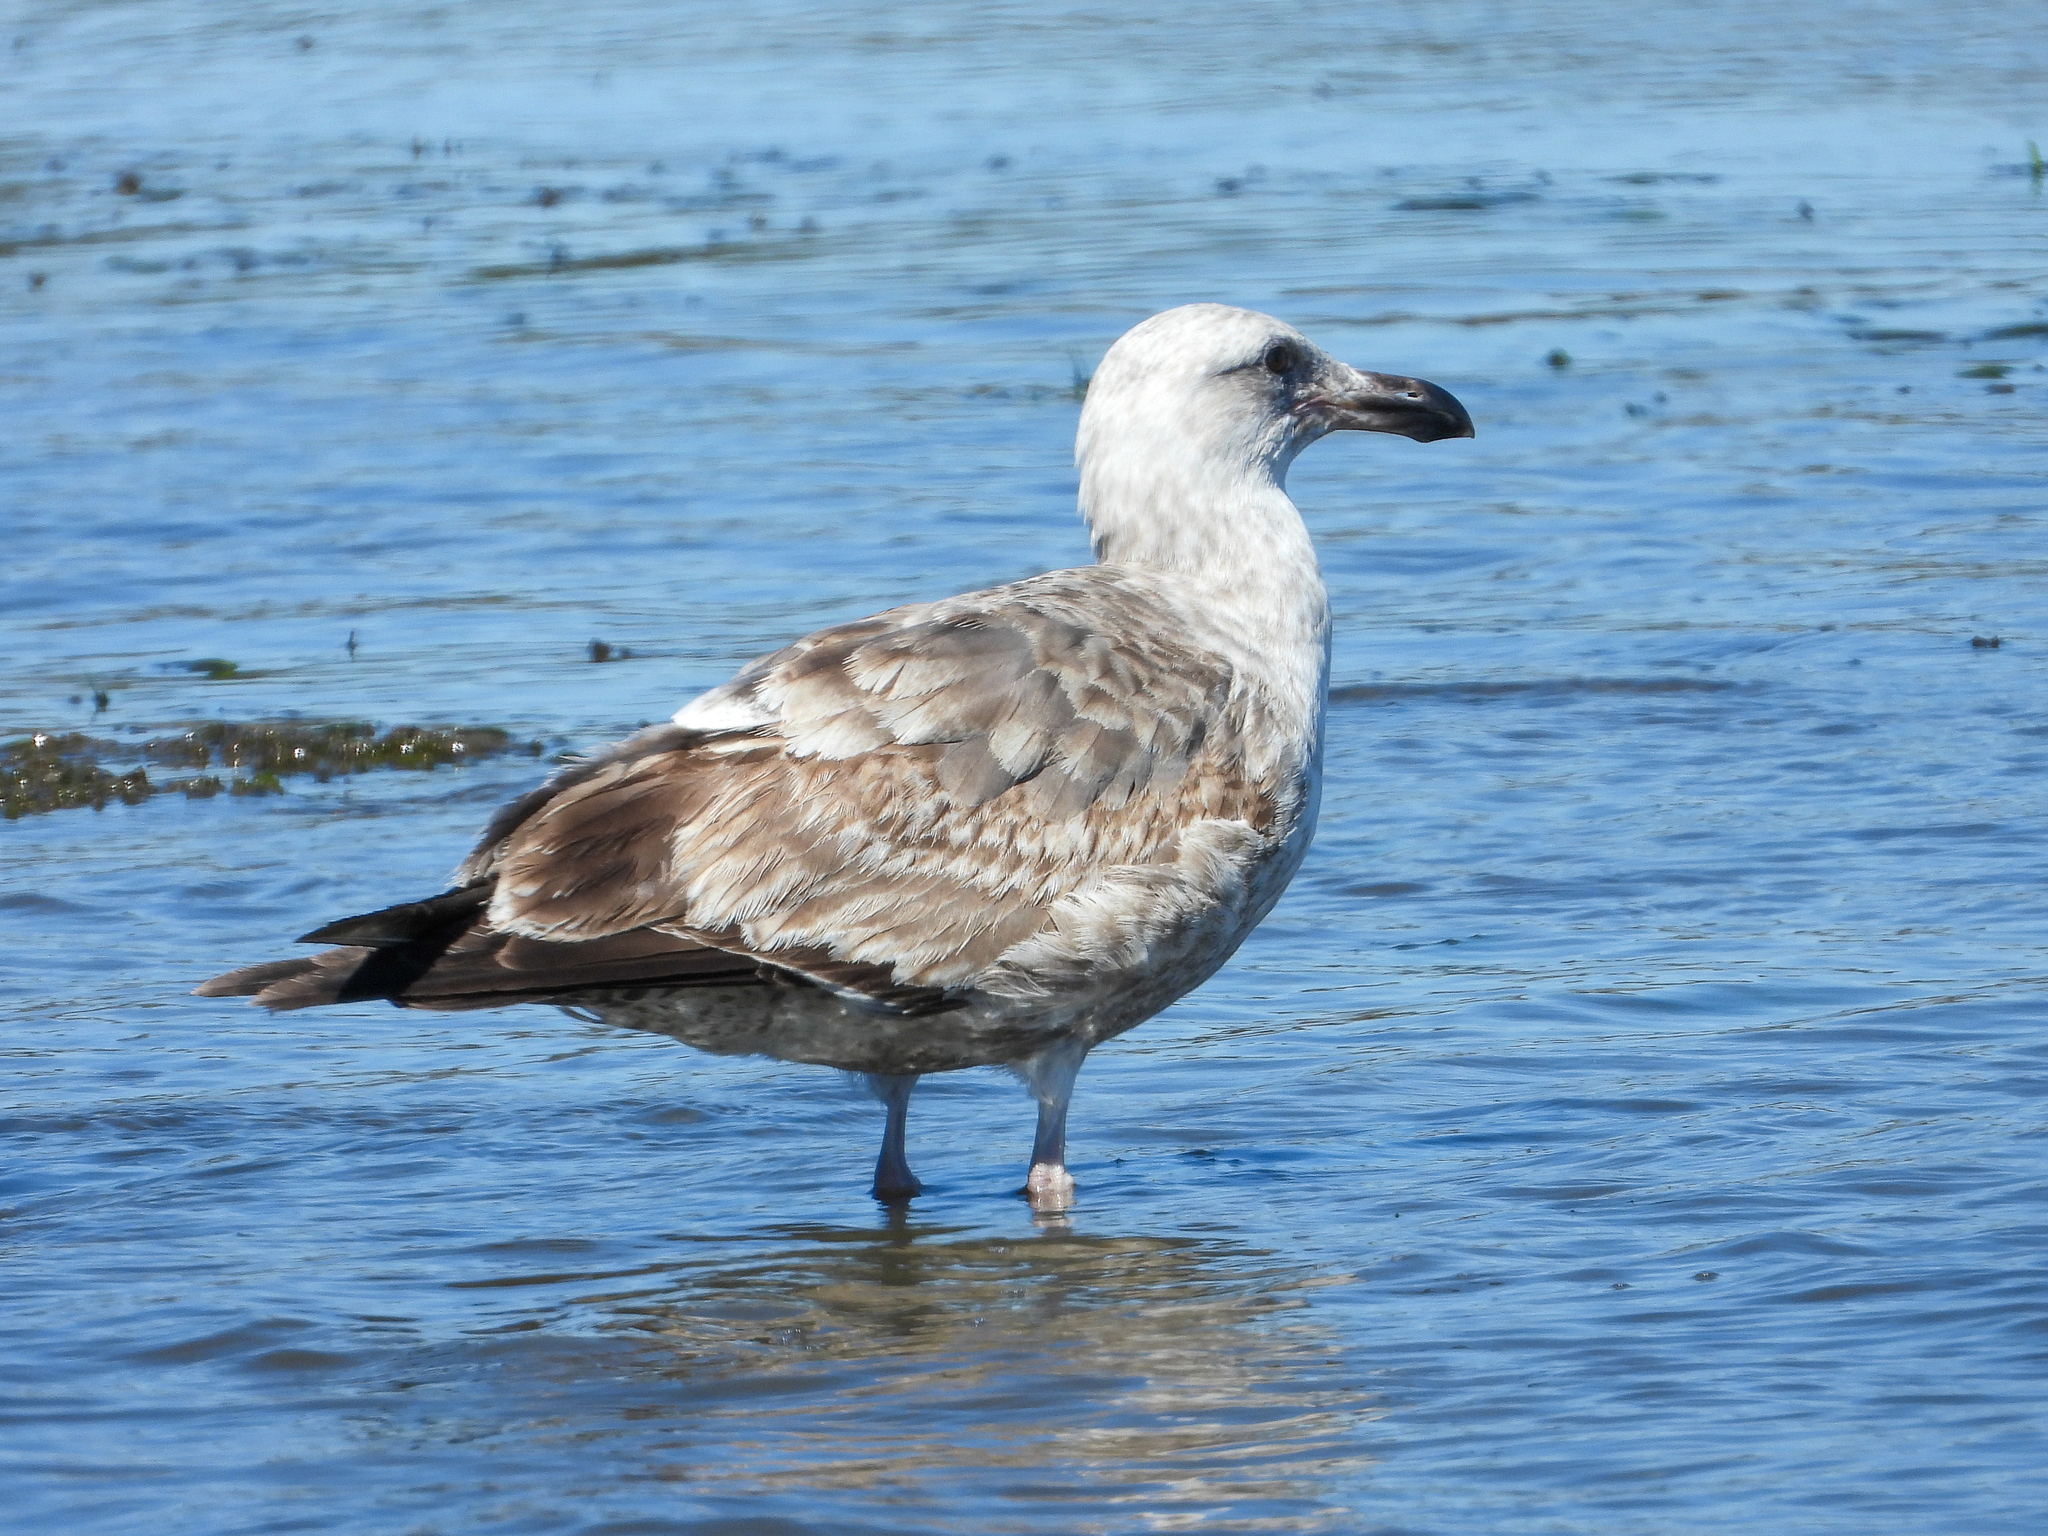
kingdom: Animalia
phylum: Chordata
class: Aves
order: Charadriiformes
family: Laridae
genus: Larus
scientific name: Larus occidentalis
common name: Western gull
